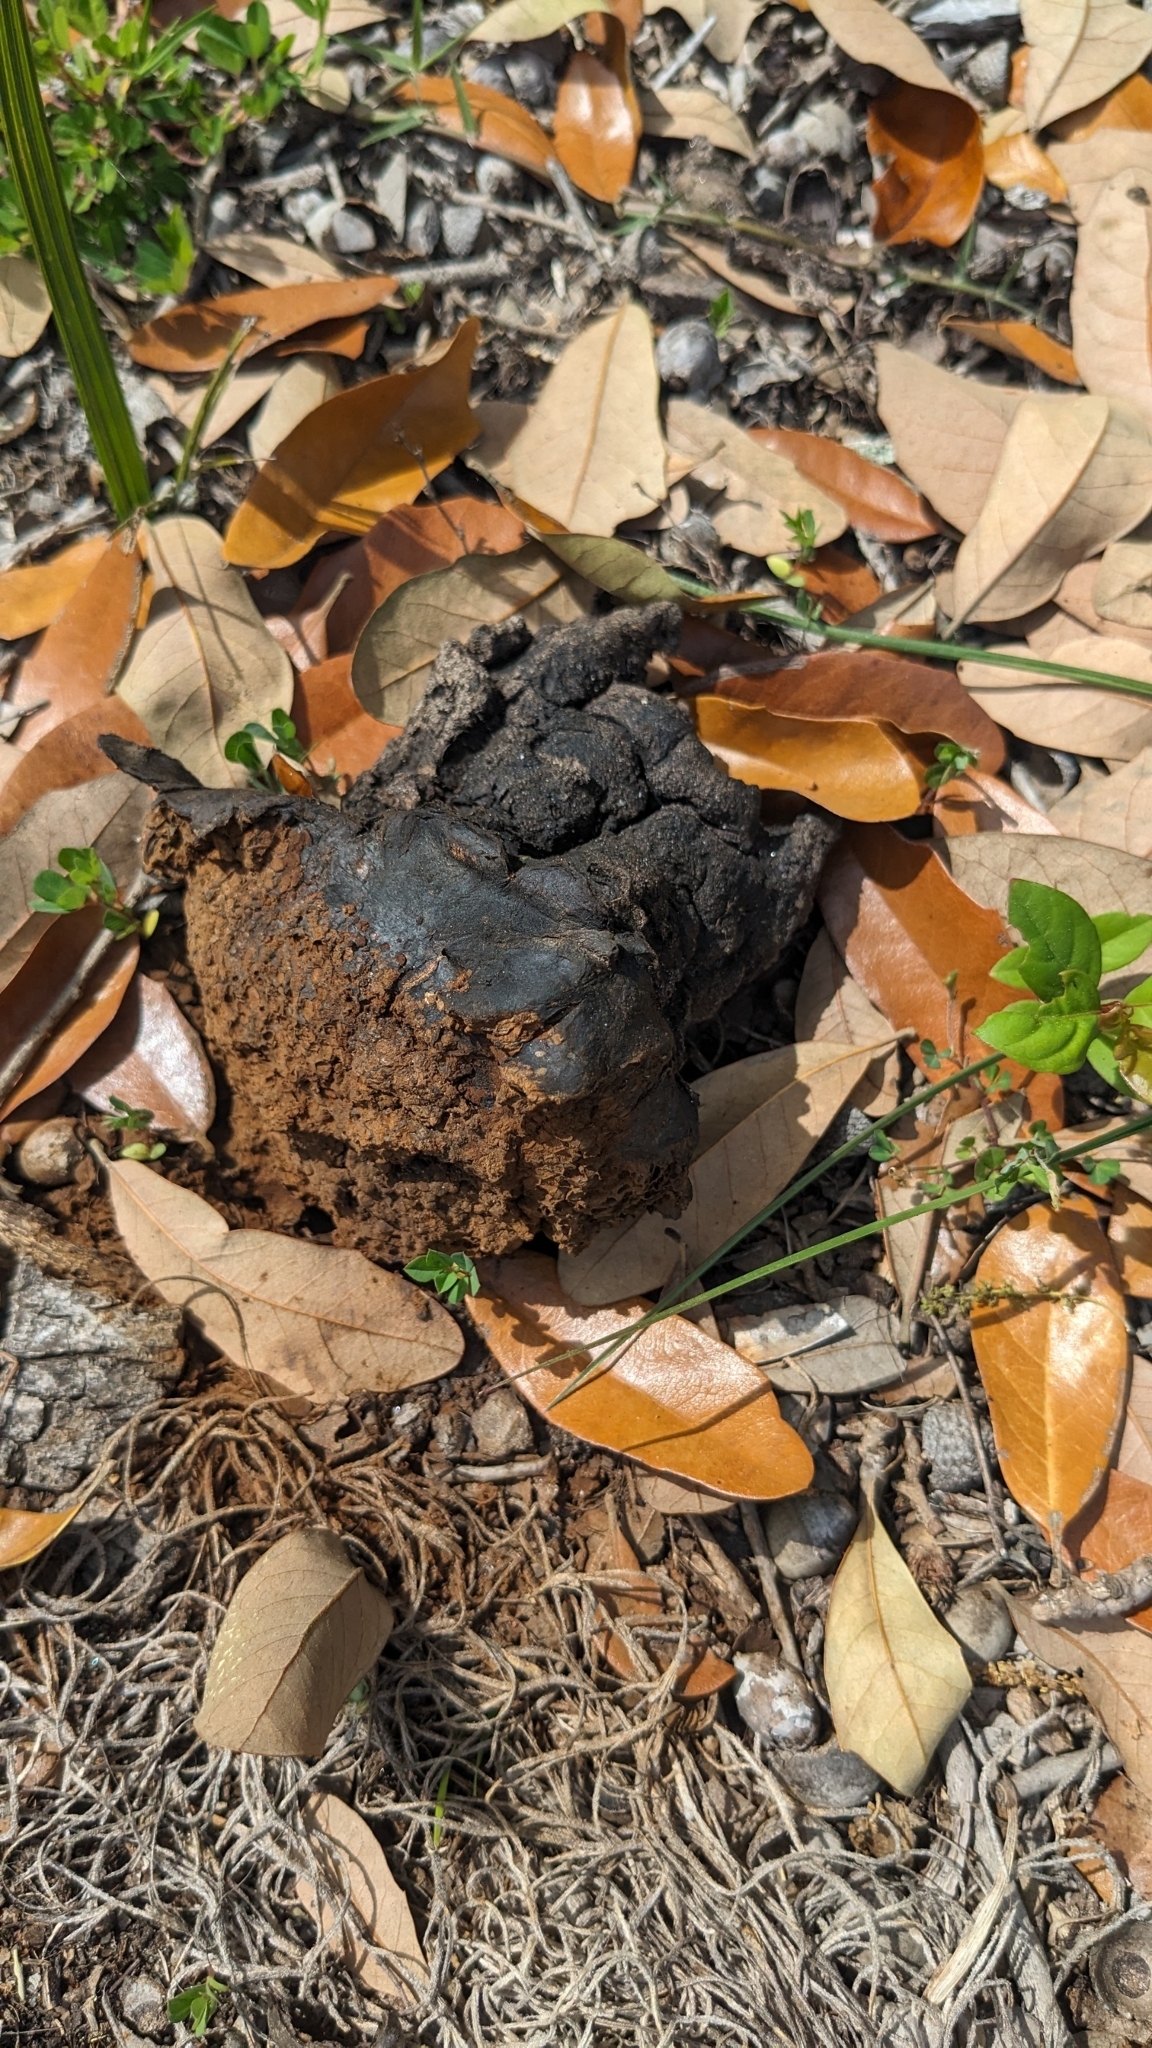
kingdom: Fungi
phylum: Basidiomycota
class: Agaricomycetes
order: Boletales
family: Sclerodermataceae
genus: Pisolithus
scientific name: Pisolithus arenarius
